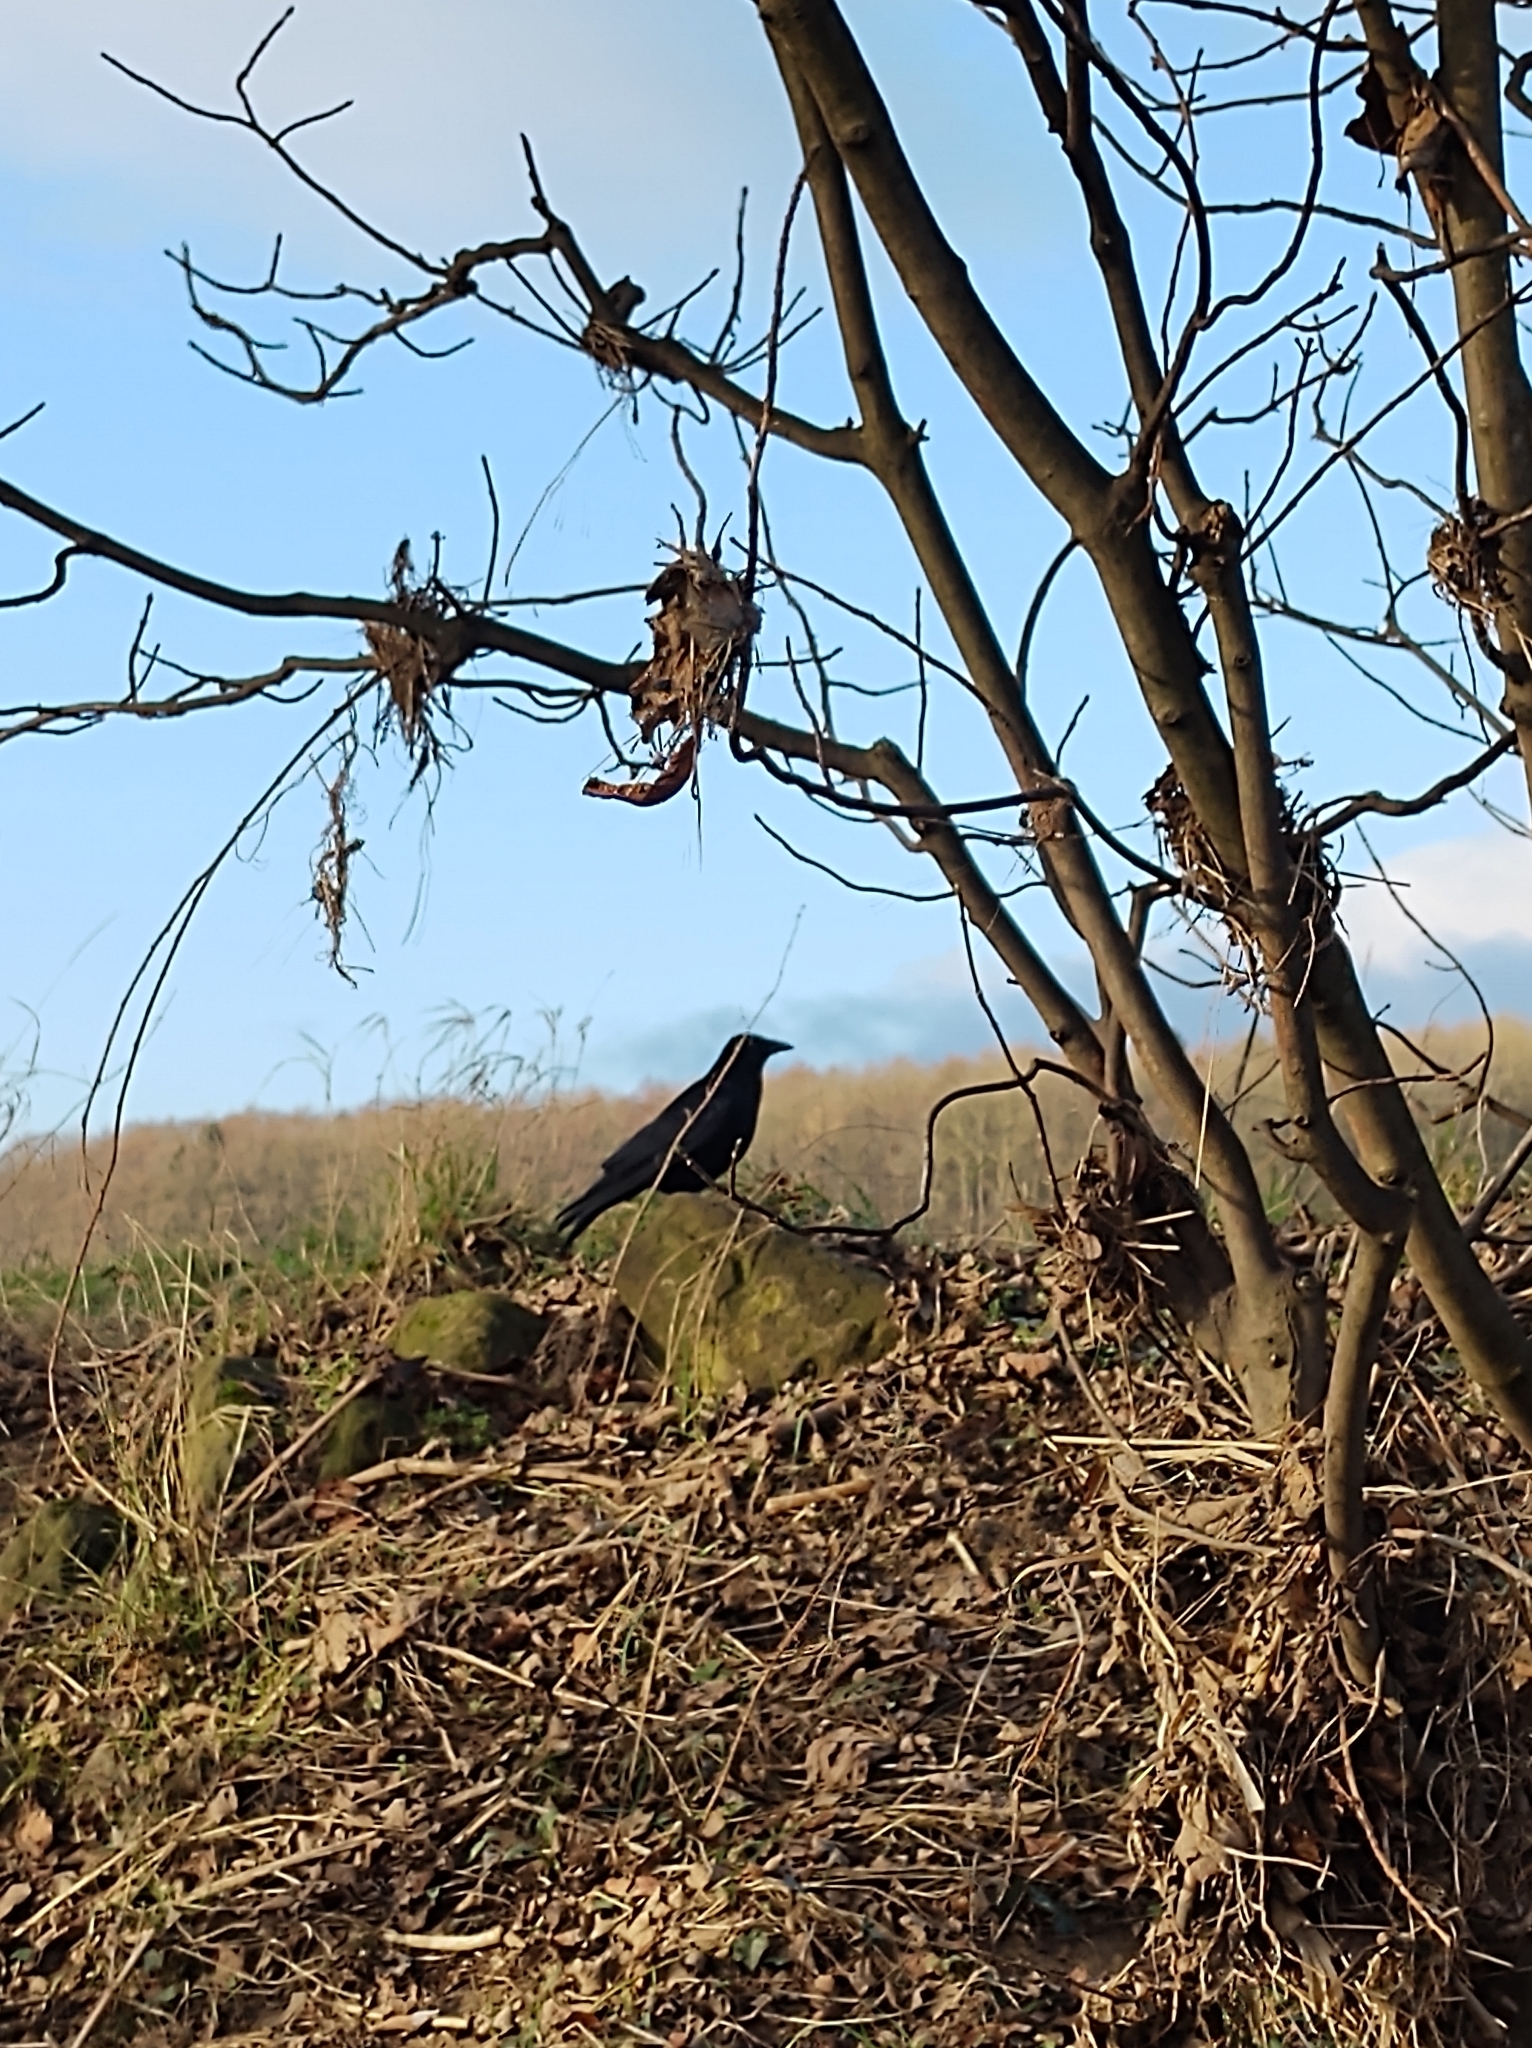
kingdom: Animalia
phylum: Chordata
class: Aves
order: Passeriformes
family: Corvidae
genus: Corvus
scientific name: Corvus corone
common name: Carrion crow
